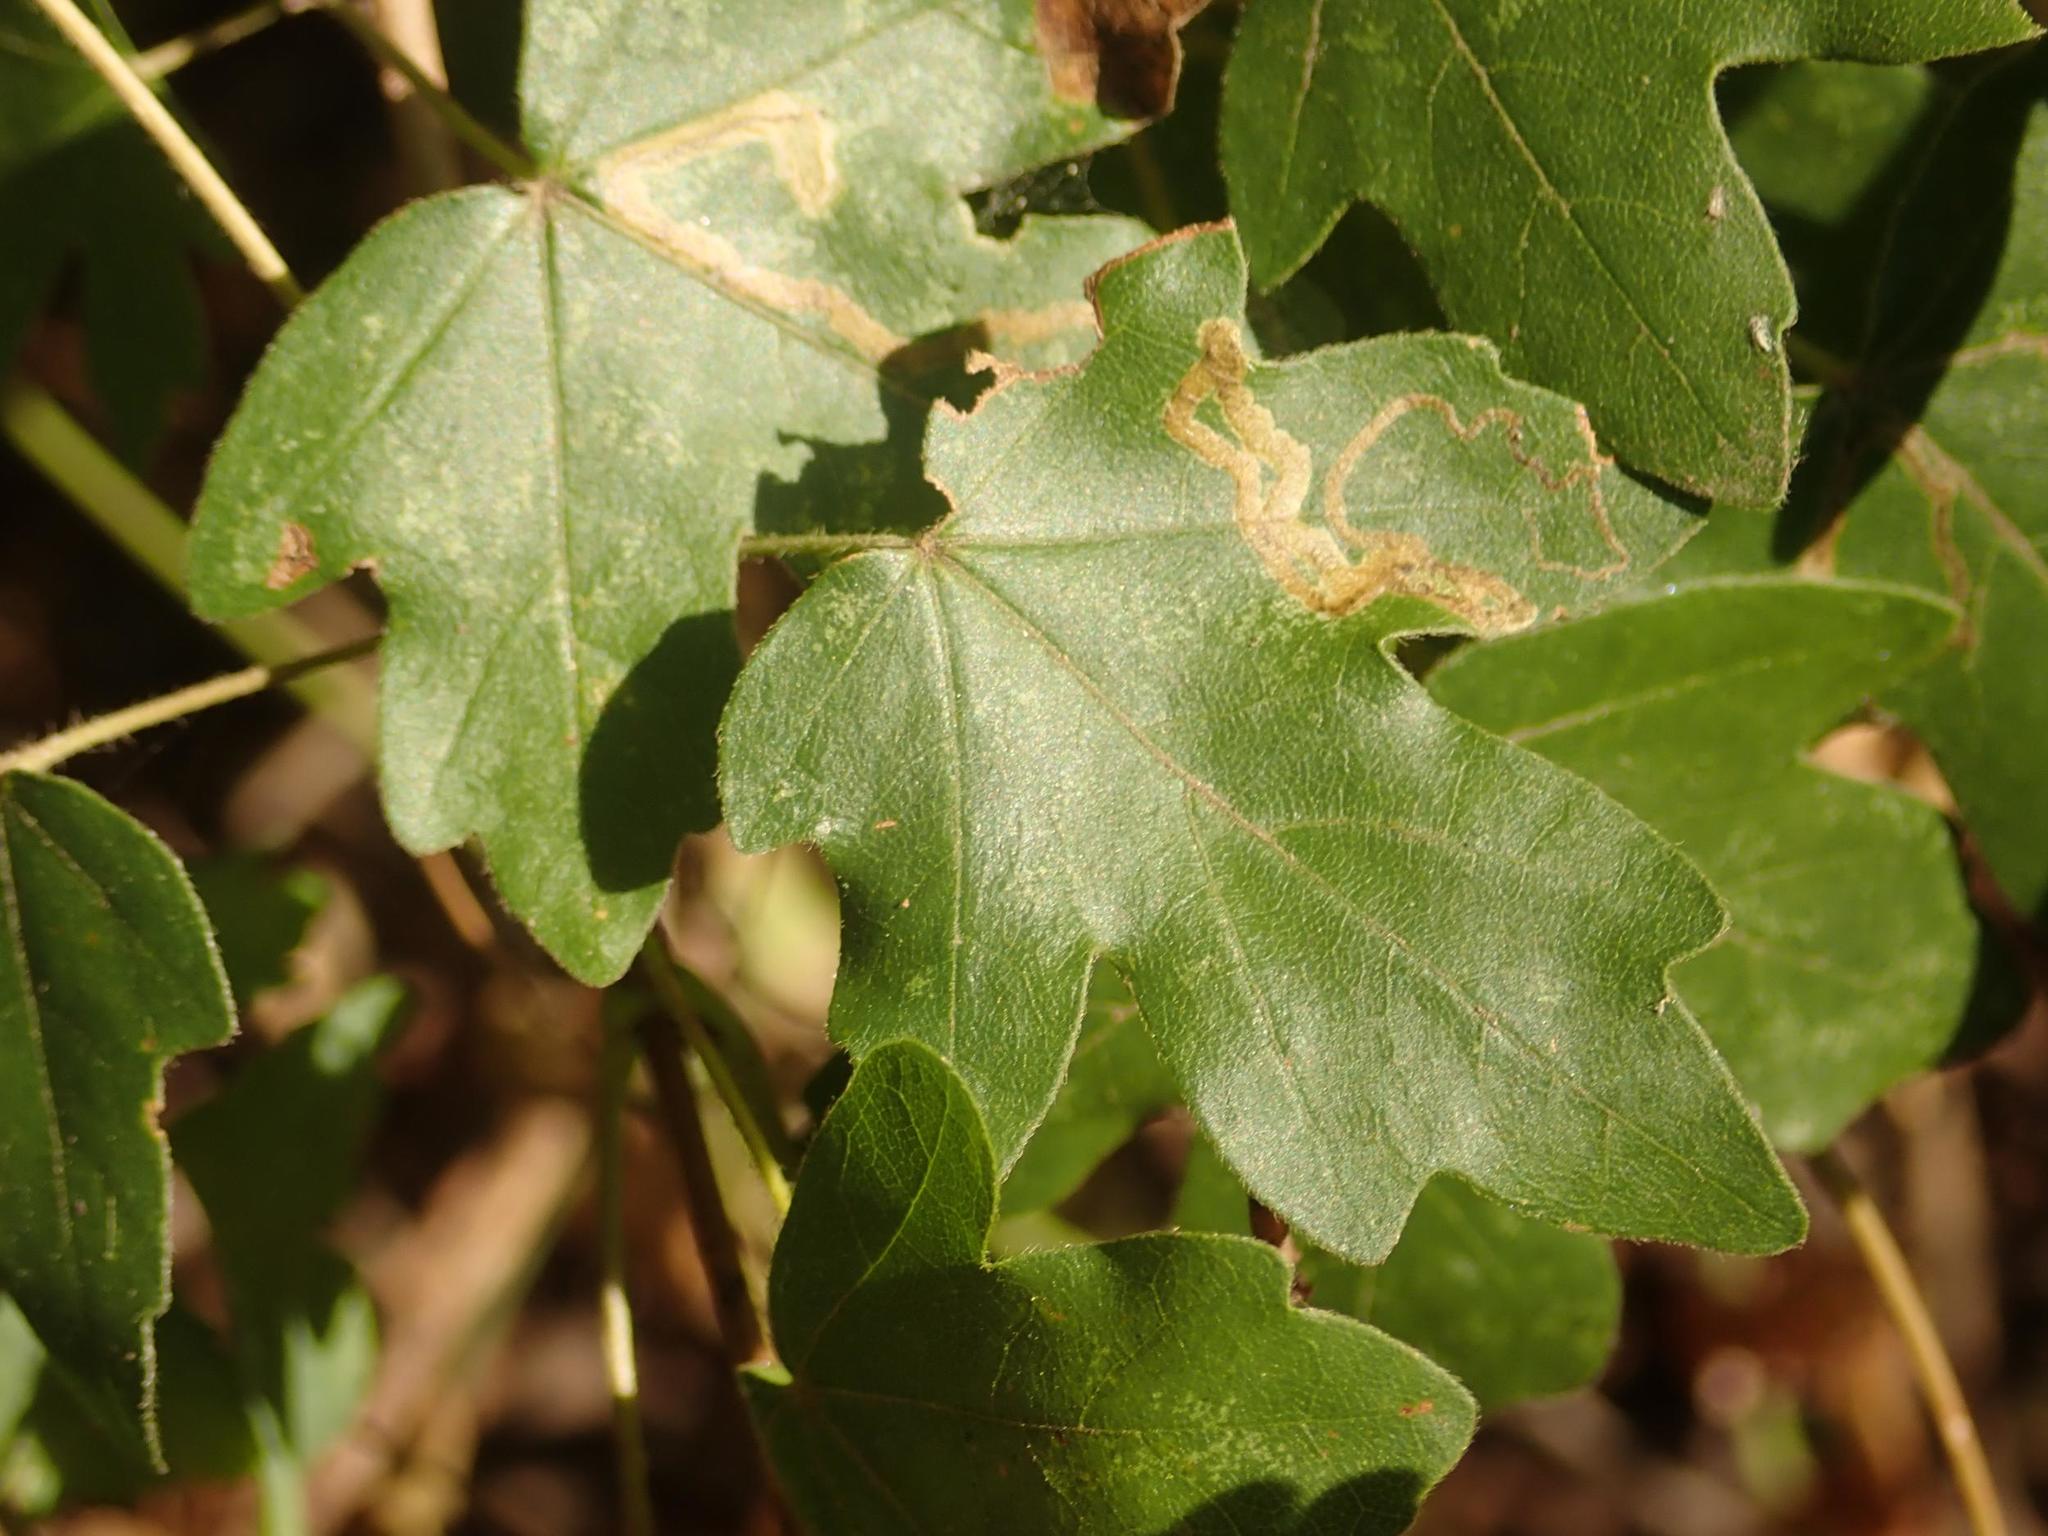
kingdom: Plantae
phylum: Tracheophyta
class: Magnoliopsida
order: Sapindales
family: Sapindaceae
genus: Acer
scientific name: Acer campestre
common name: Field maple
